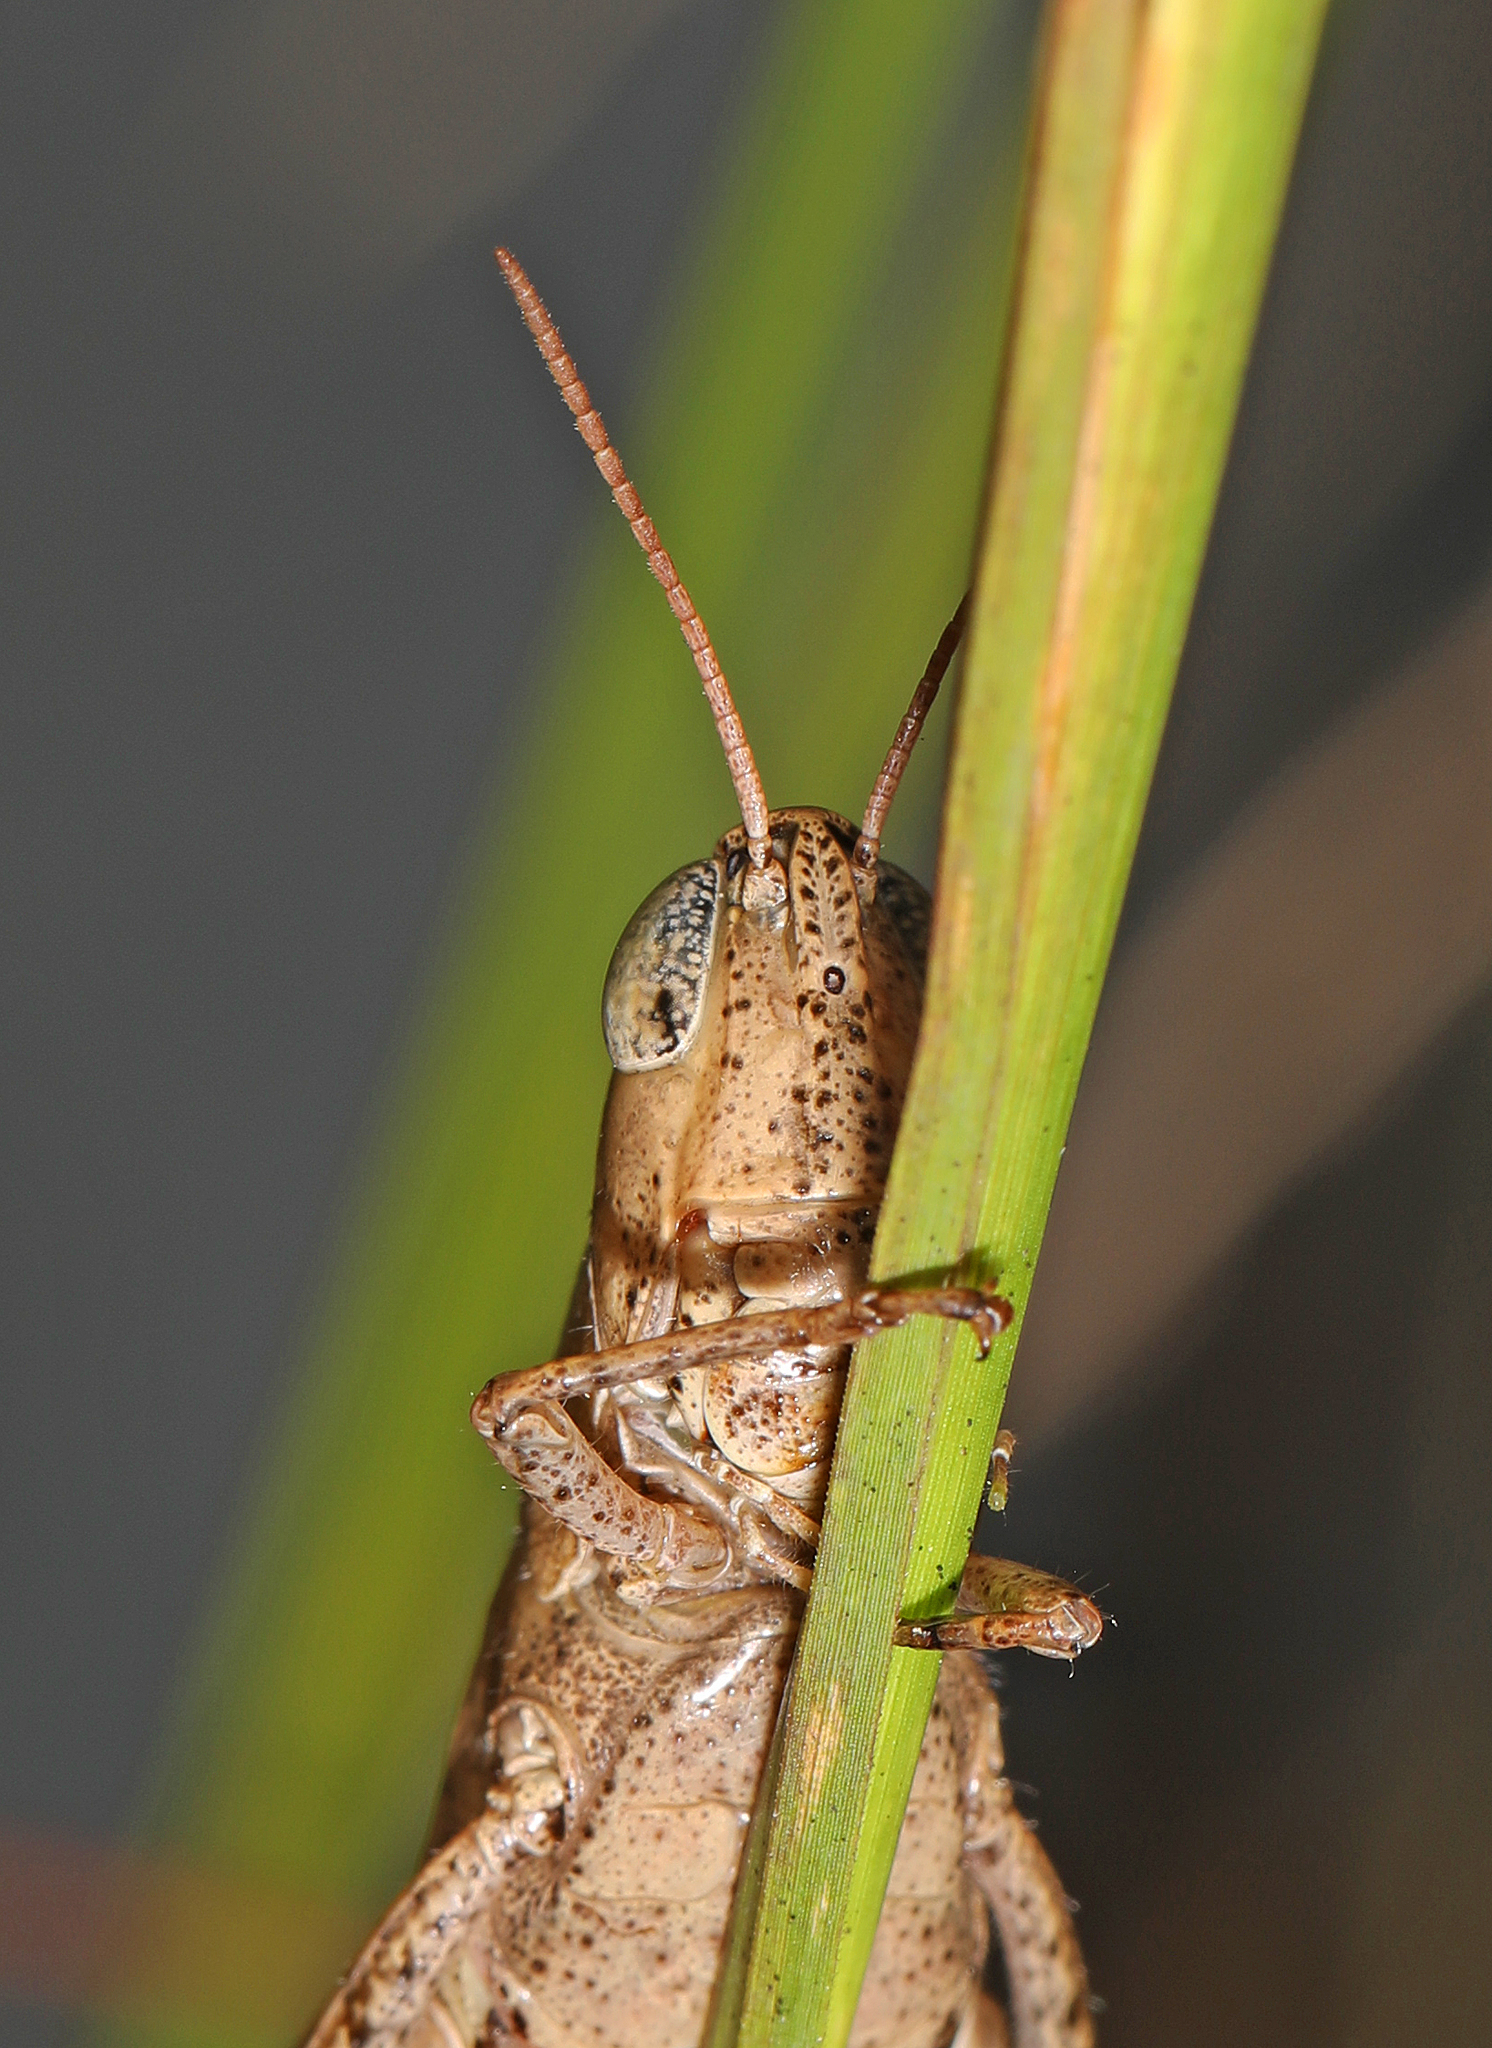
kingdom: Animalia
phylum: Arthropoda
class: Insecta
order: Orthoptera
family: Acrididae
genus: Dichromorpha
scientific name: Dichromorpha viridis
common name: Short-winged green grasshopper
